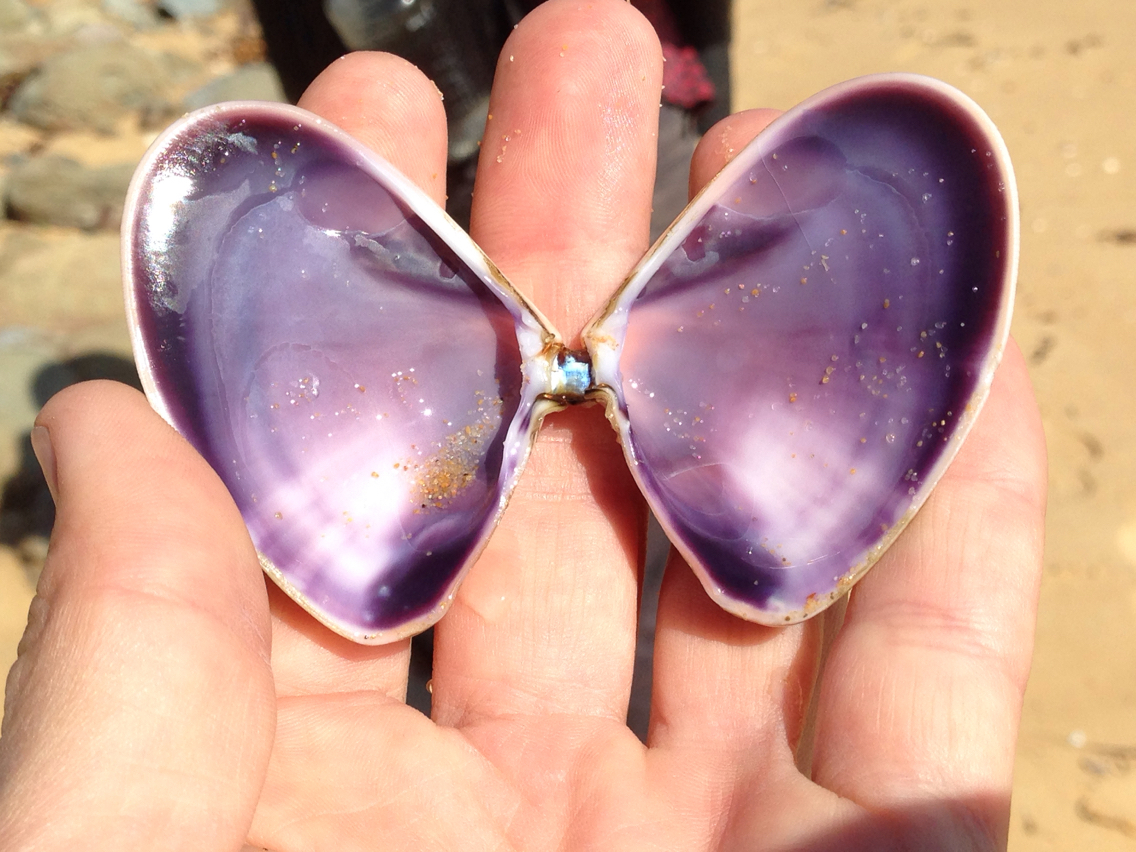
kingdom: Animalia
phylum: Mollusca
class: Bivalvia
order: Cardiida
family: Donacidae
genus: Latona
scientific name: Latona deltoides
